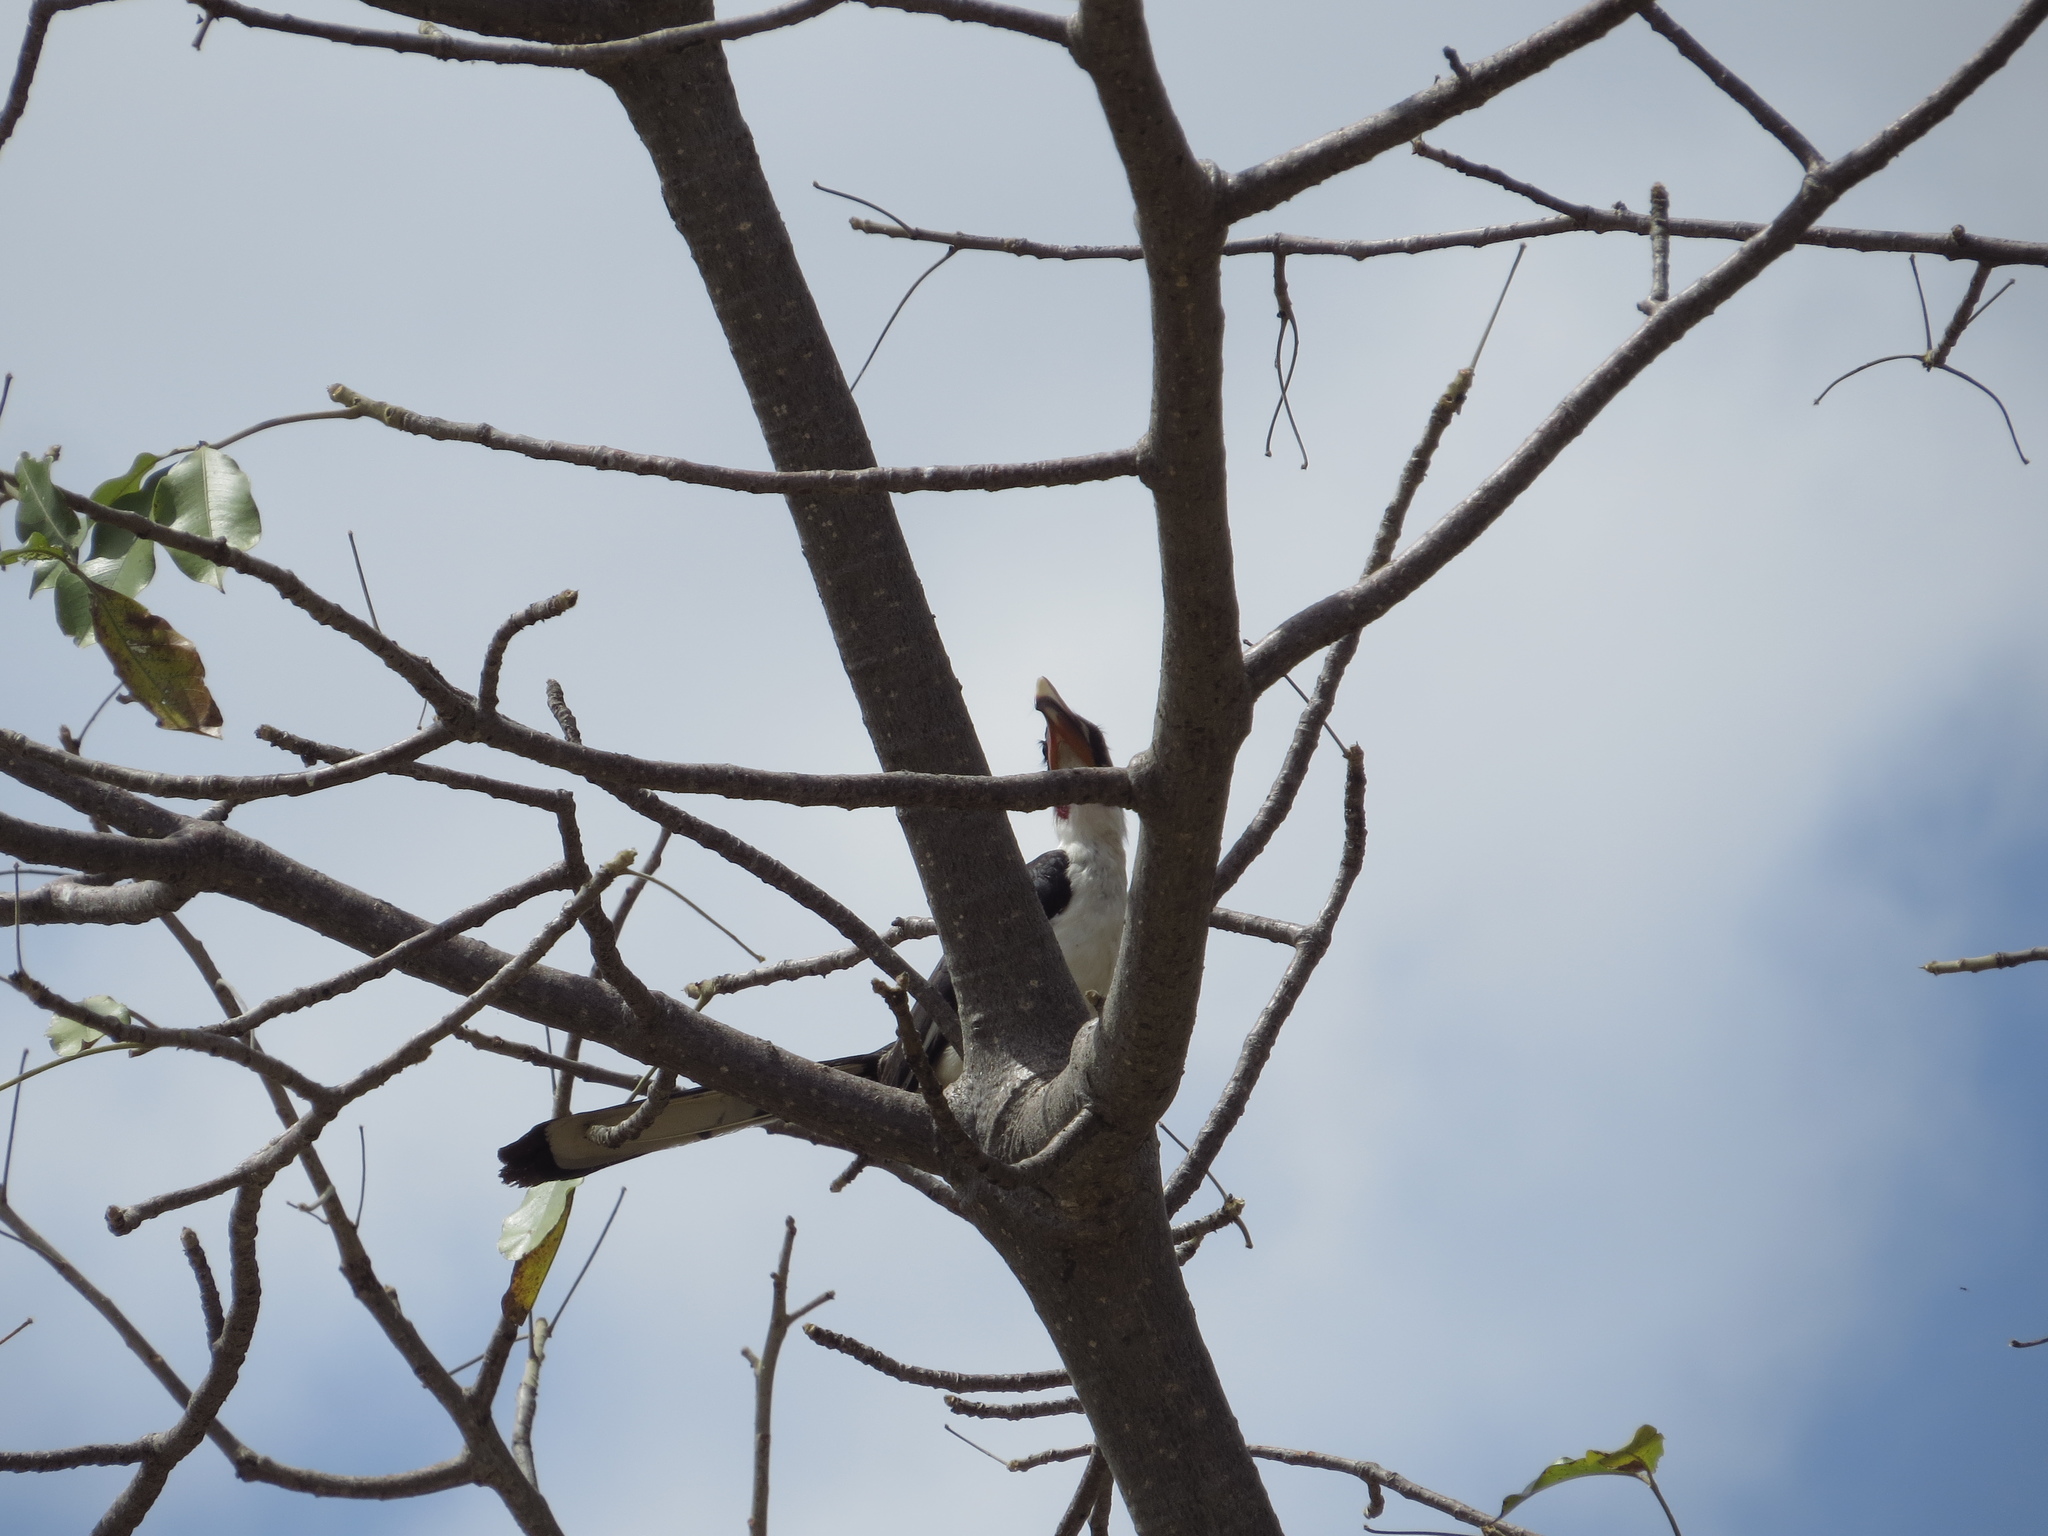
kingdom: Animalia
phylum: Chordata
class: Aves
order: Bucerotiformes
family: Bucerotidae
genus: Tockus
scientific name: Tockus deckeni
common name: Von der decken's hornbill
